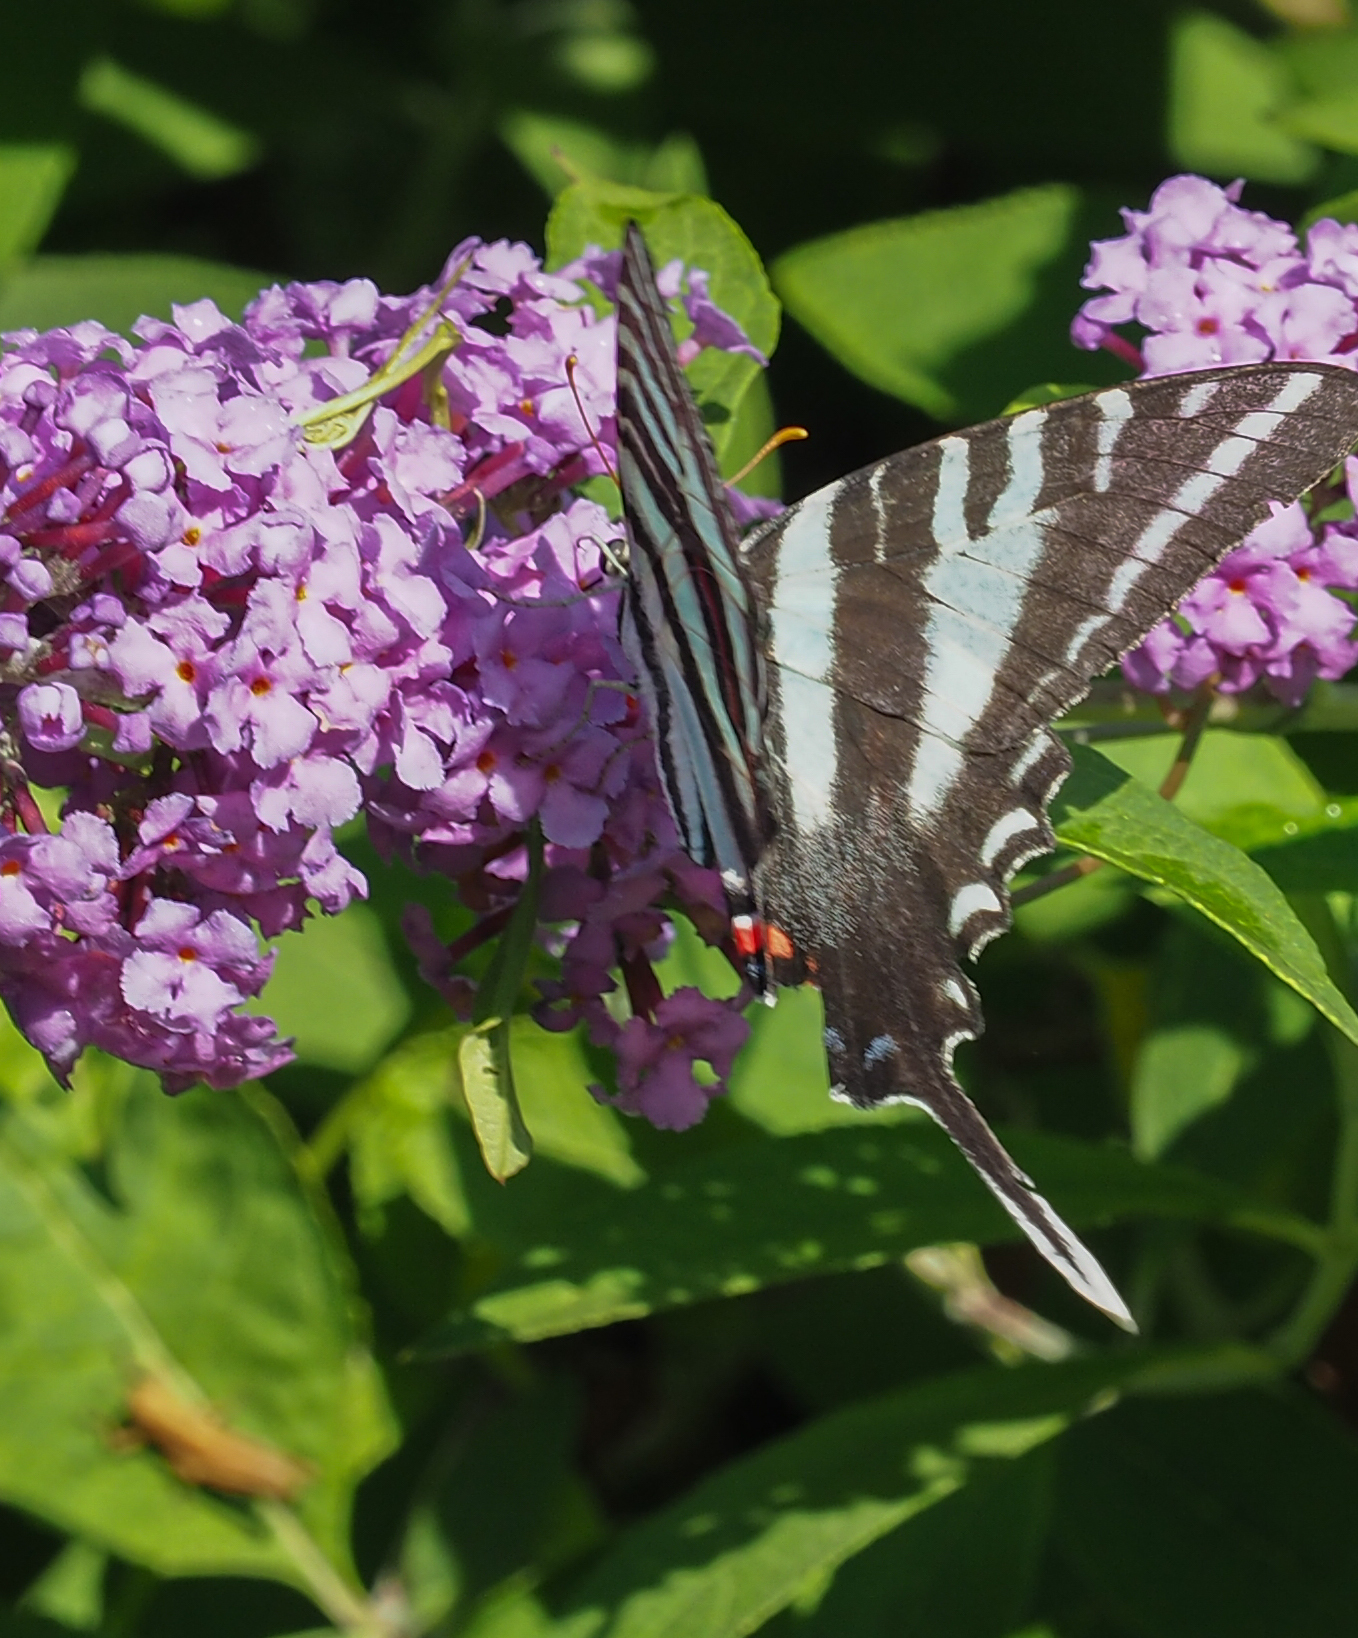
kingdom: Animalia
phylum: Arthropoda
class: Insecta
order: Lepidoptera
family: Papilionidae
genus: Protographium
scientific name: Protographium marcellus
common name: Zebra swallowtail
